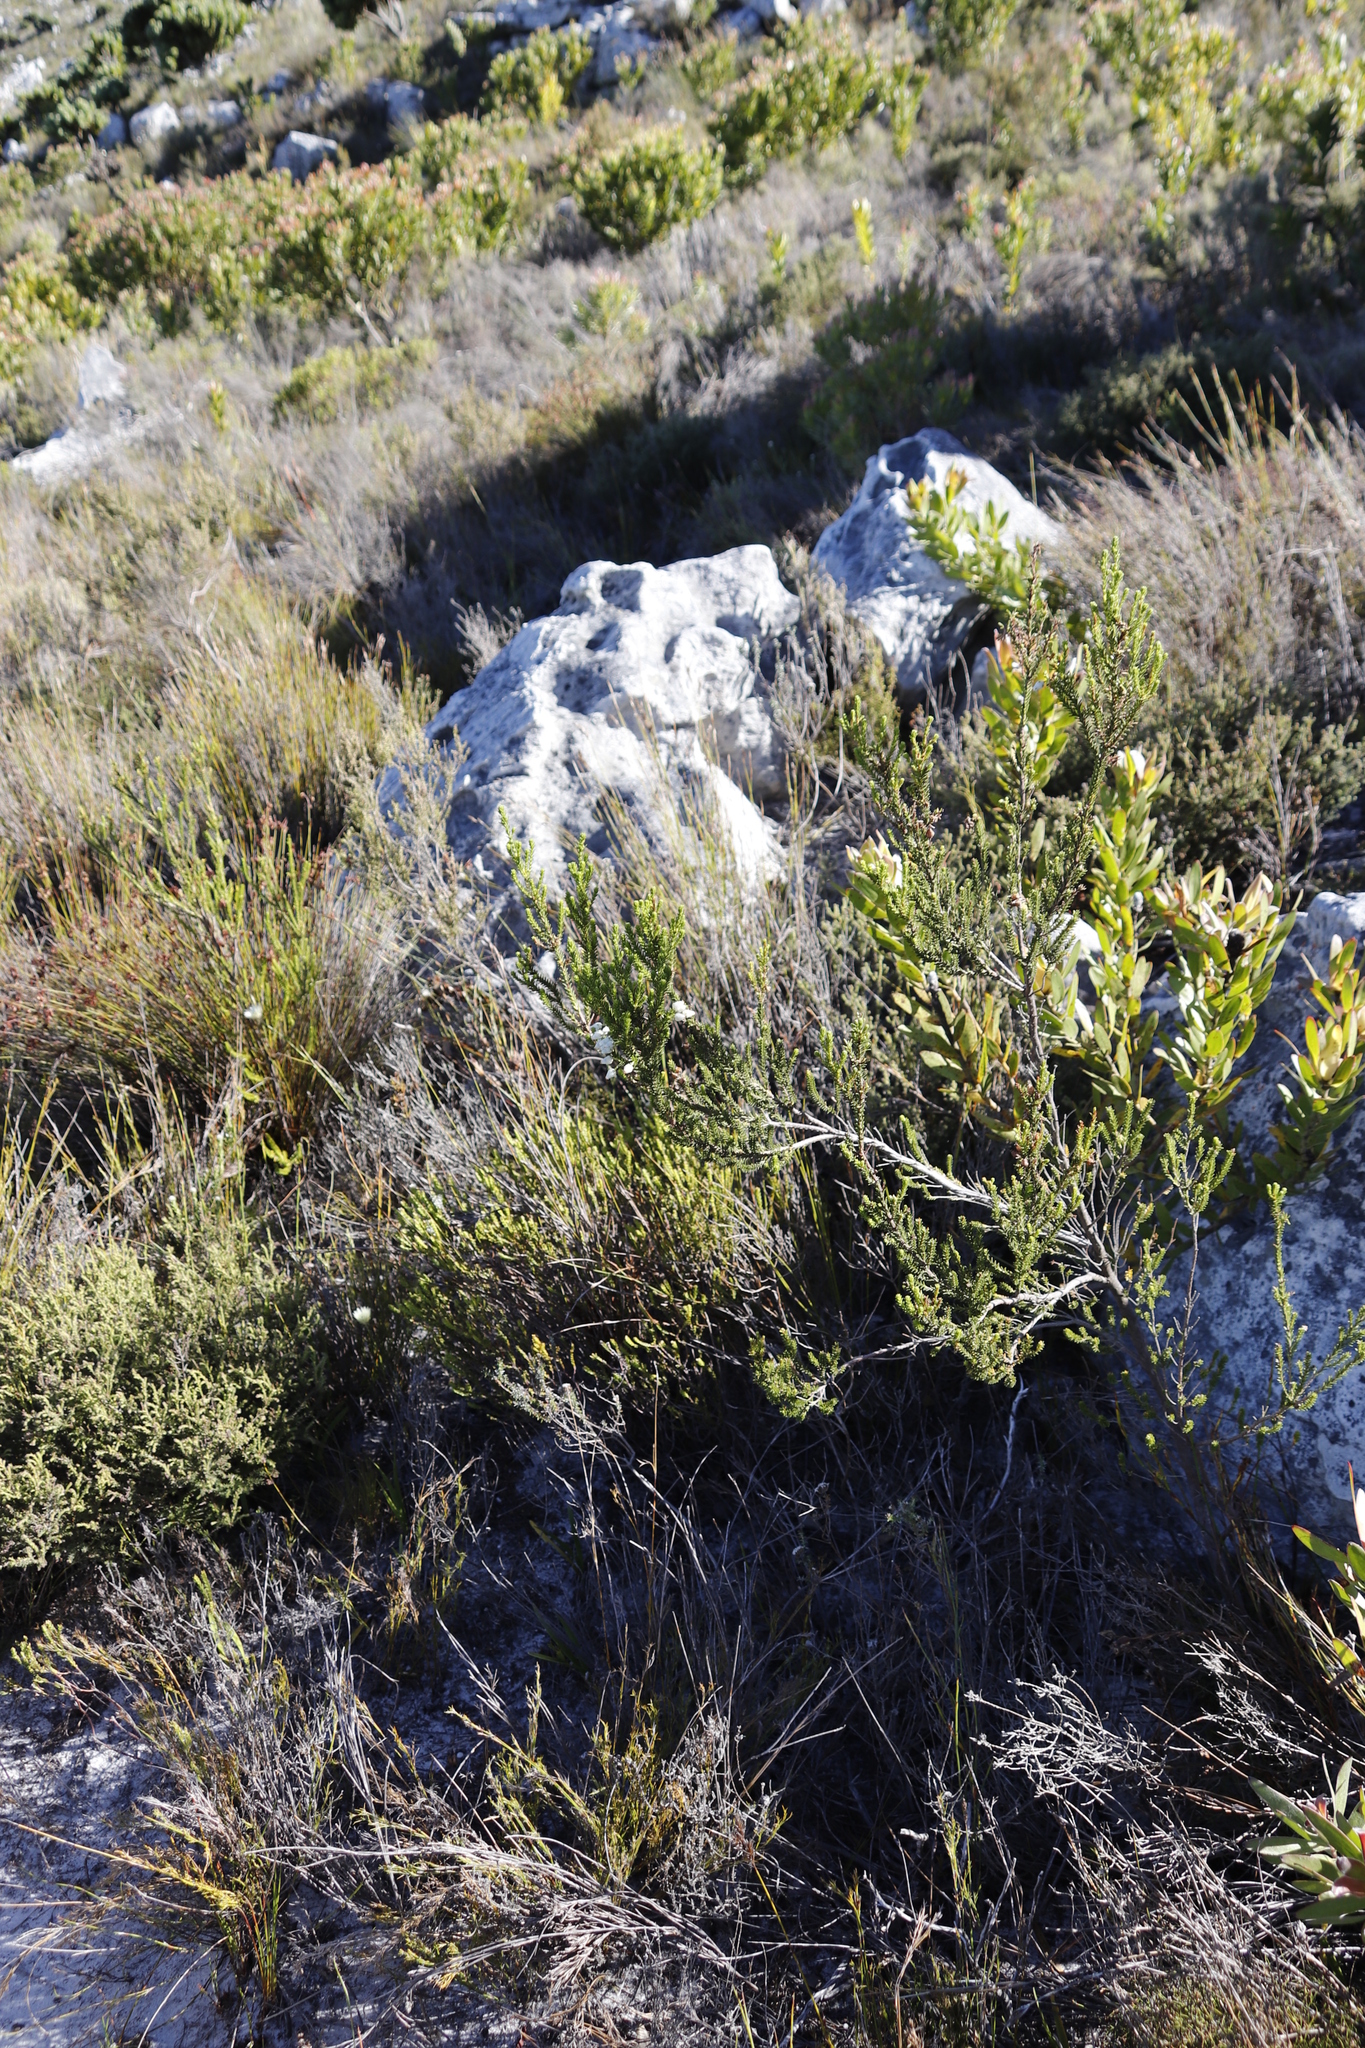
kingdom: Plantae
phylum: Tracheophyta
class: Magnoliopsida
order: Ericales
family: Ericaceae
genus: Erica
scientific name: Erica physodes
